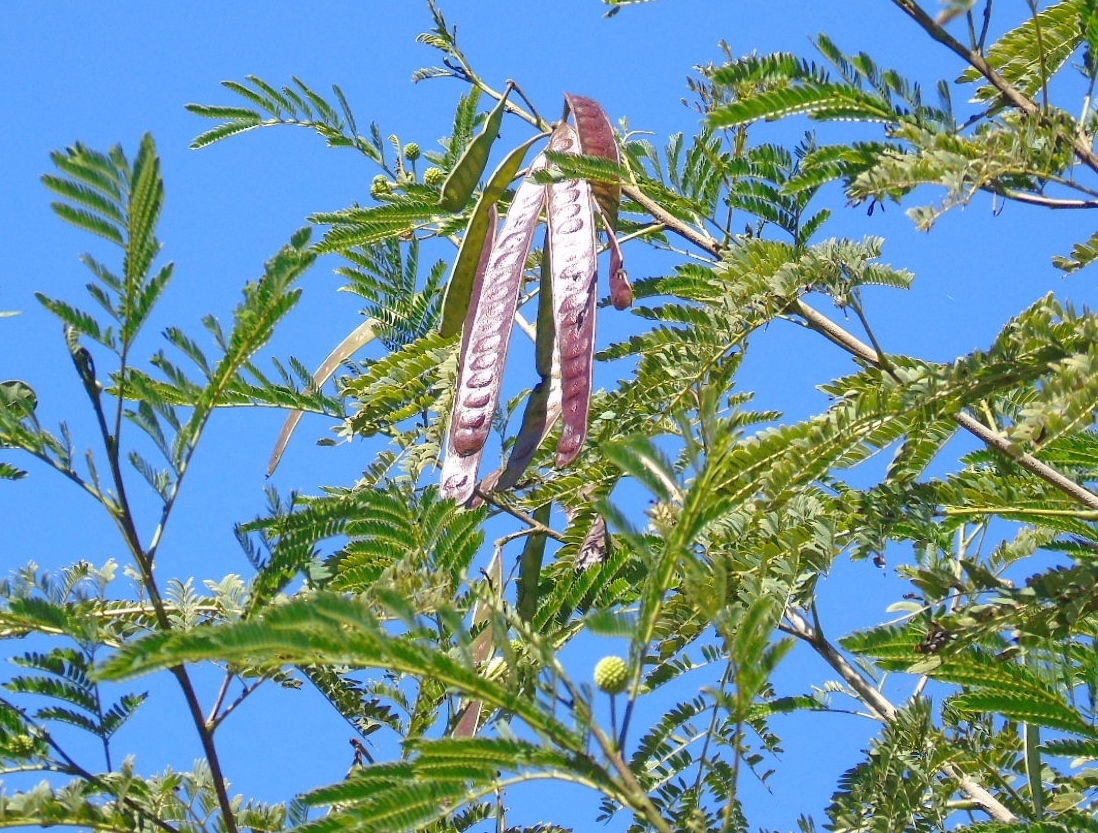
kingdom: Plantae
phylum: Tracheophyta
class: Magnoliopsida
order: Fabales
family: Fabaceae
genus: Leucaena
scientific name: Leucaena leucocephala
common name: White leadtree
